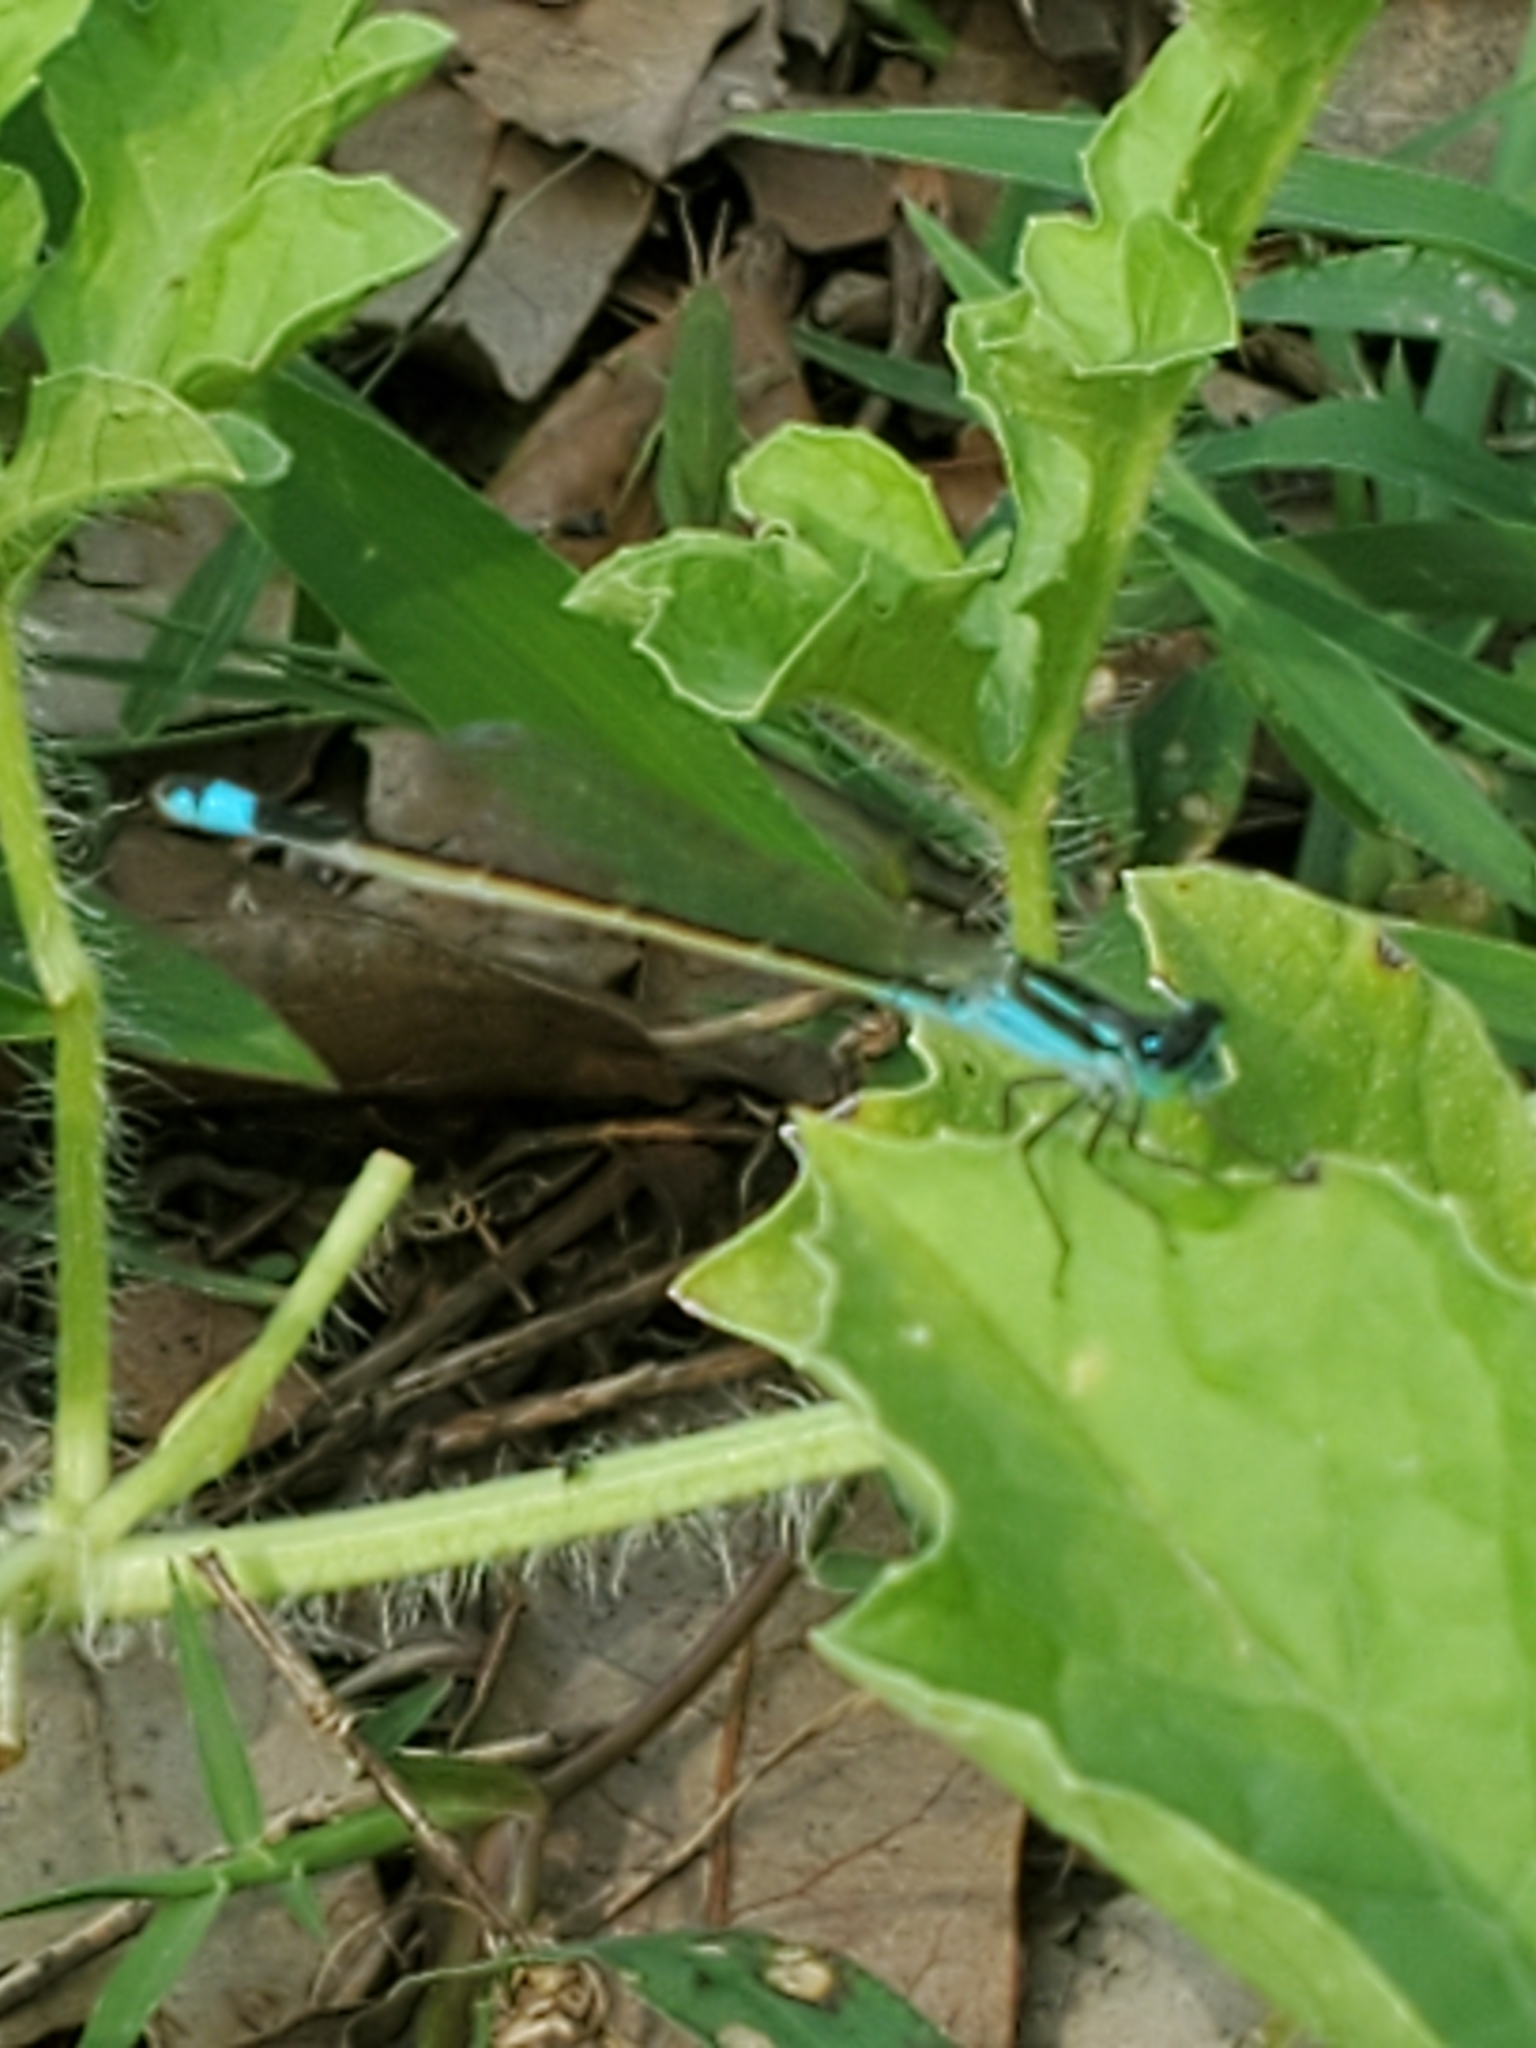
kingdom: Animalia
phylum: Arthropoda
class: Insecta
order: Odonata
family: Coenagrionidae
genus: Ischnura
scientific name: Ischnura ramburii
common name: Rambur's forktail
